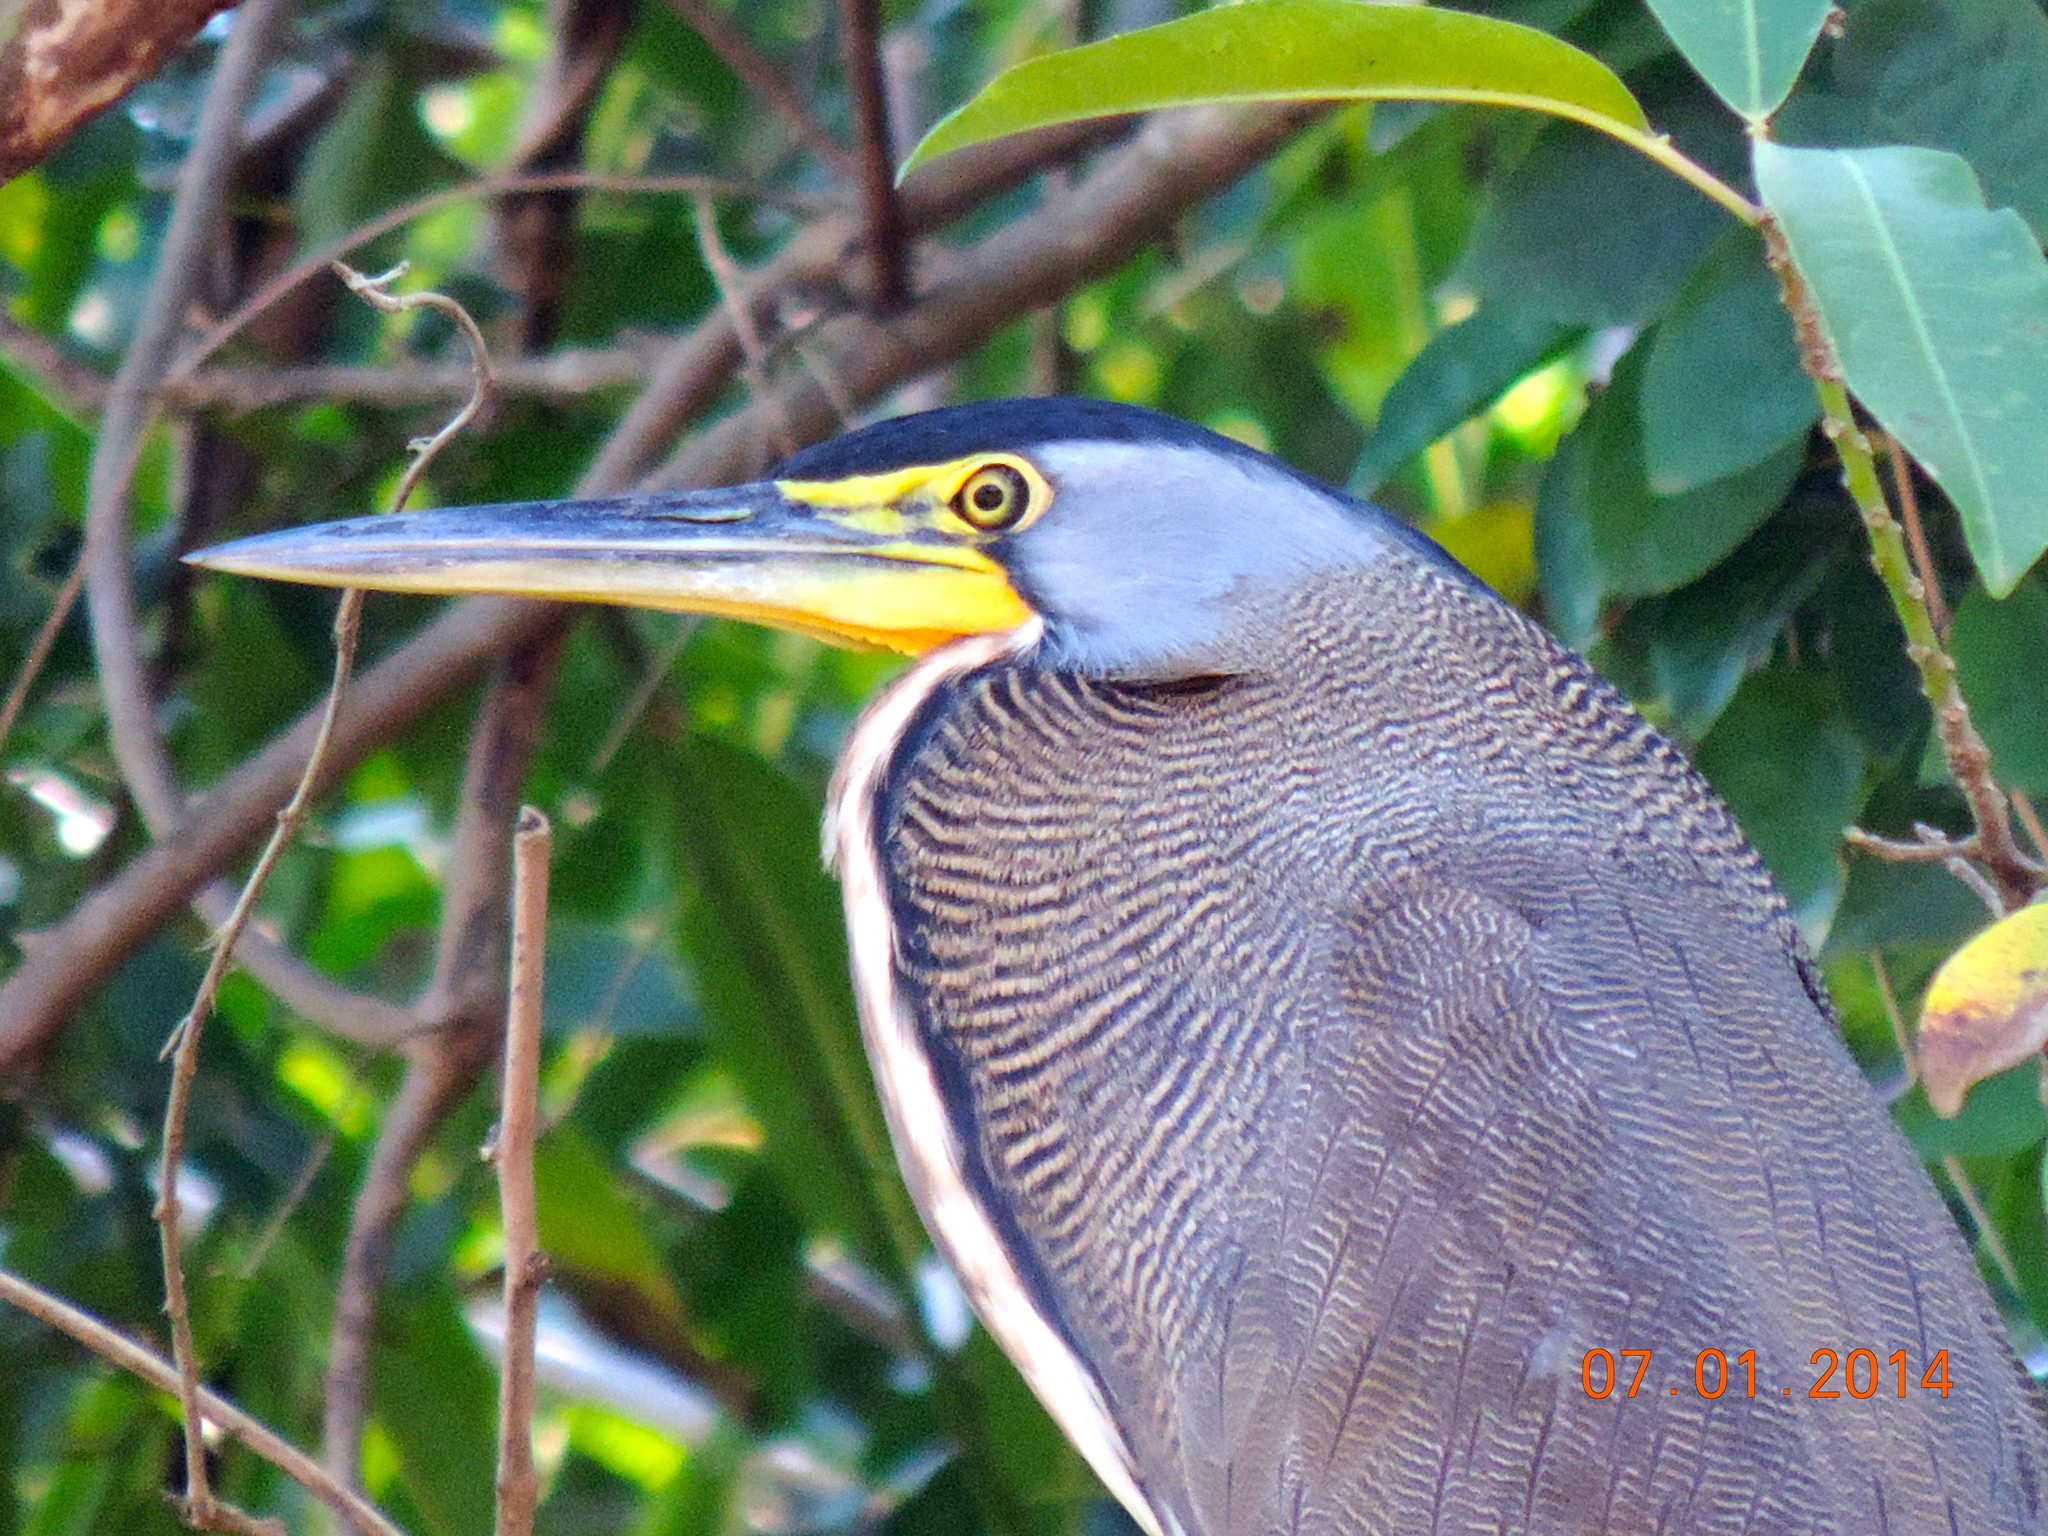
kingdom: Animalia
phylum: Chordata
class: Aves
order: Pelecaniformes
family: Ardeidae
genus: Tigrisoma
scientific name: Tigrisoma mexicanum
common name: Bare-throated tiger-heron
